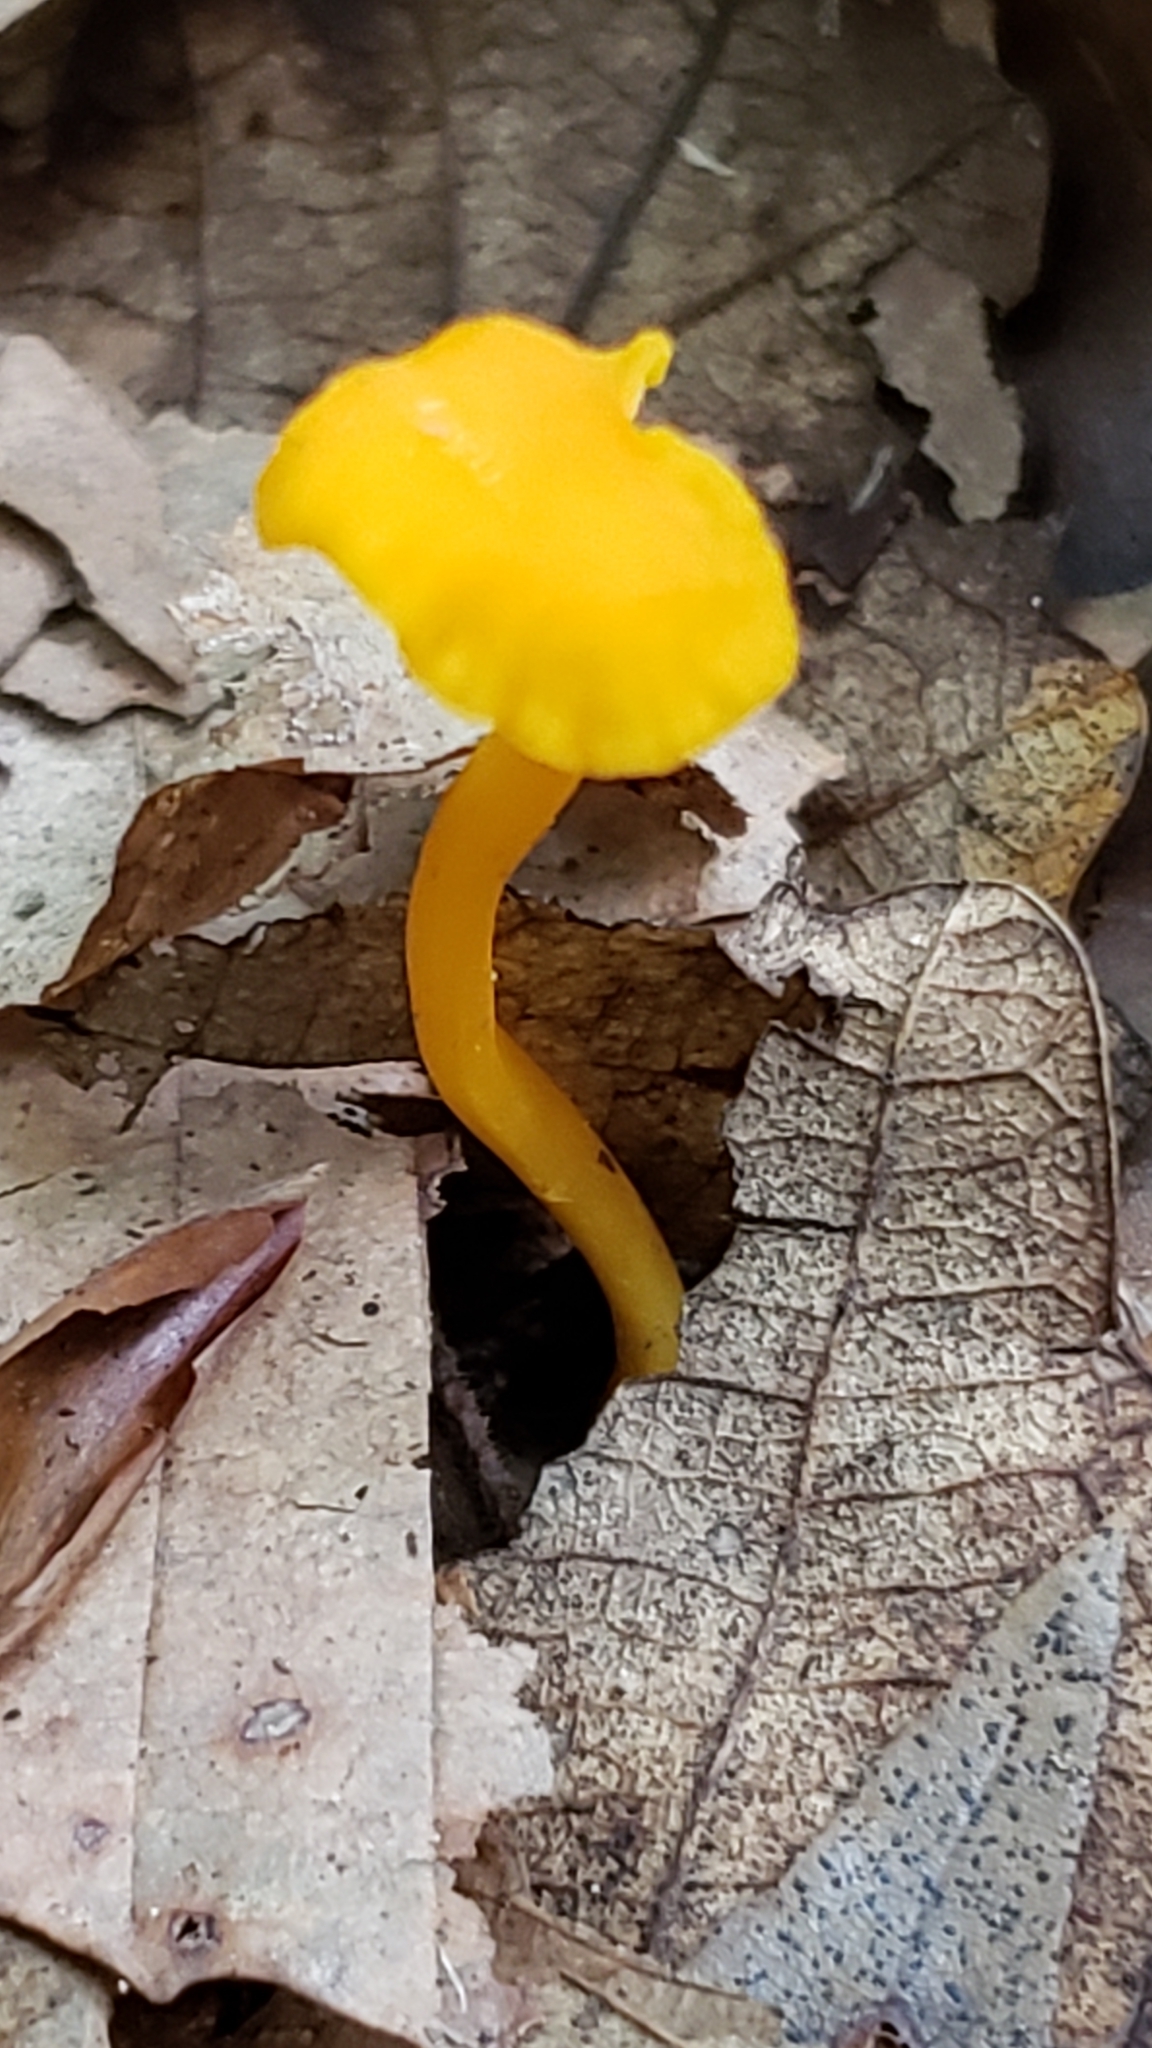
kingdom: Fungi
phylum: Basidiomycota
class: Agaricomycetes
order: Cantharellales
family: Hydnaceae
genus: Cantharellus
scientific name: Cantharellus minor
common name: Small chanterelle
